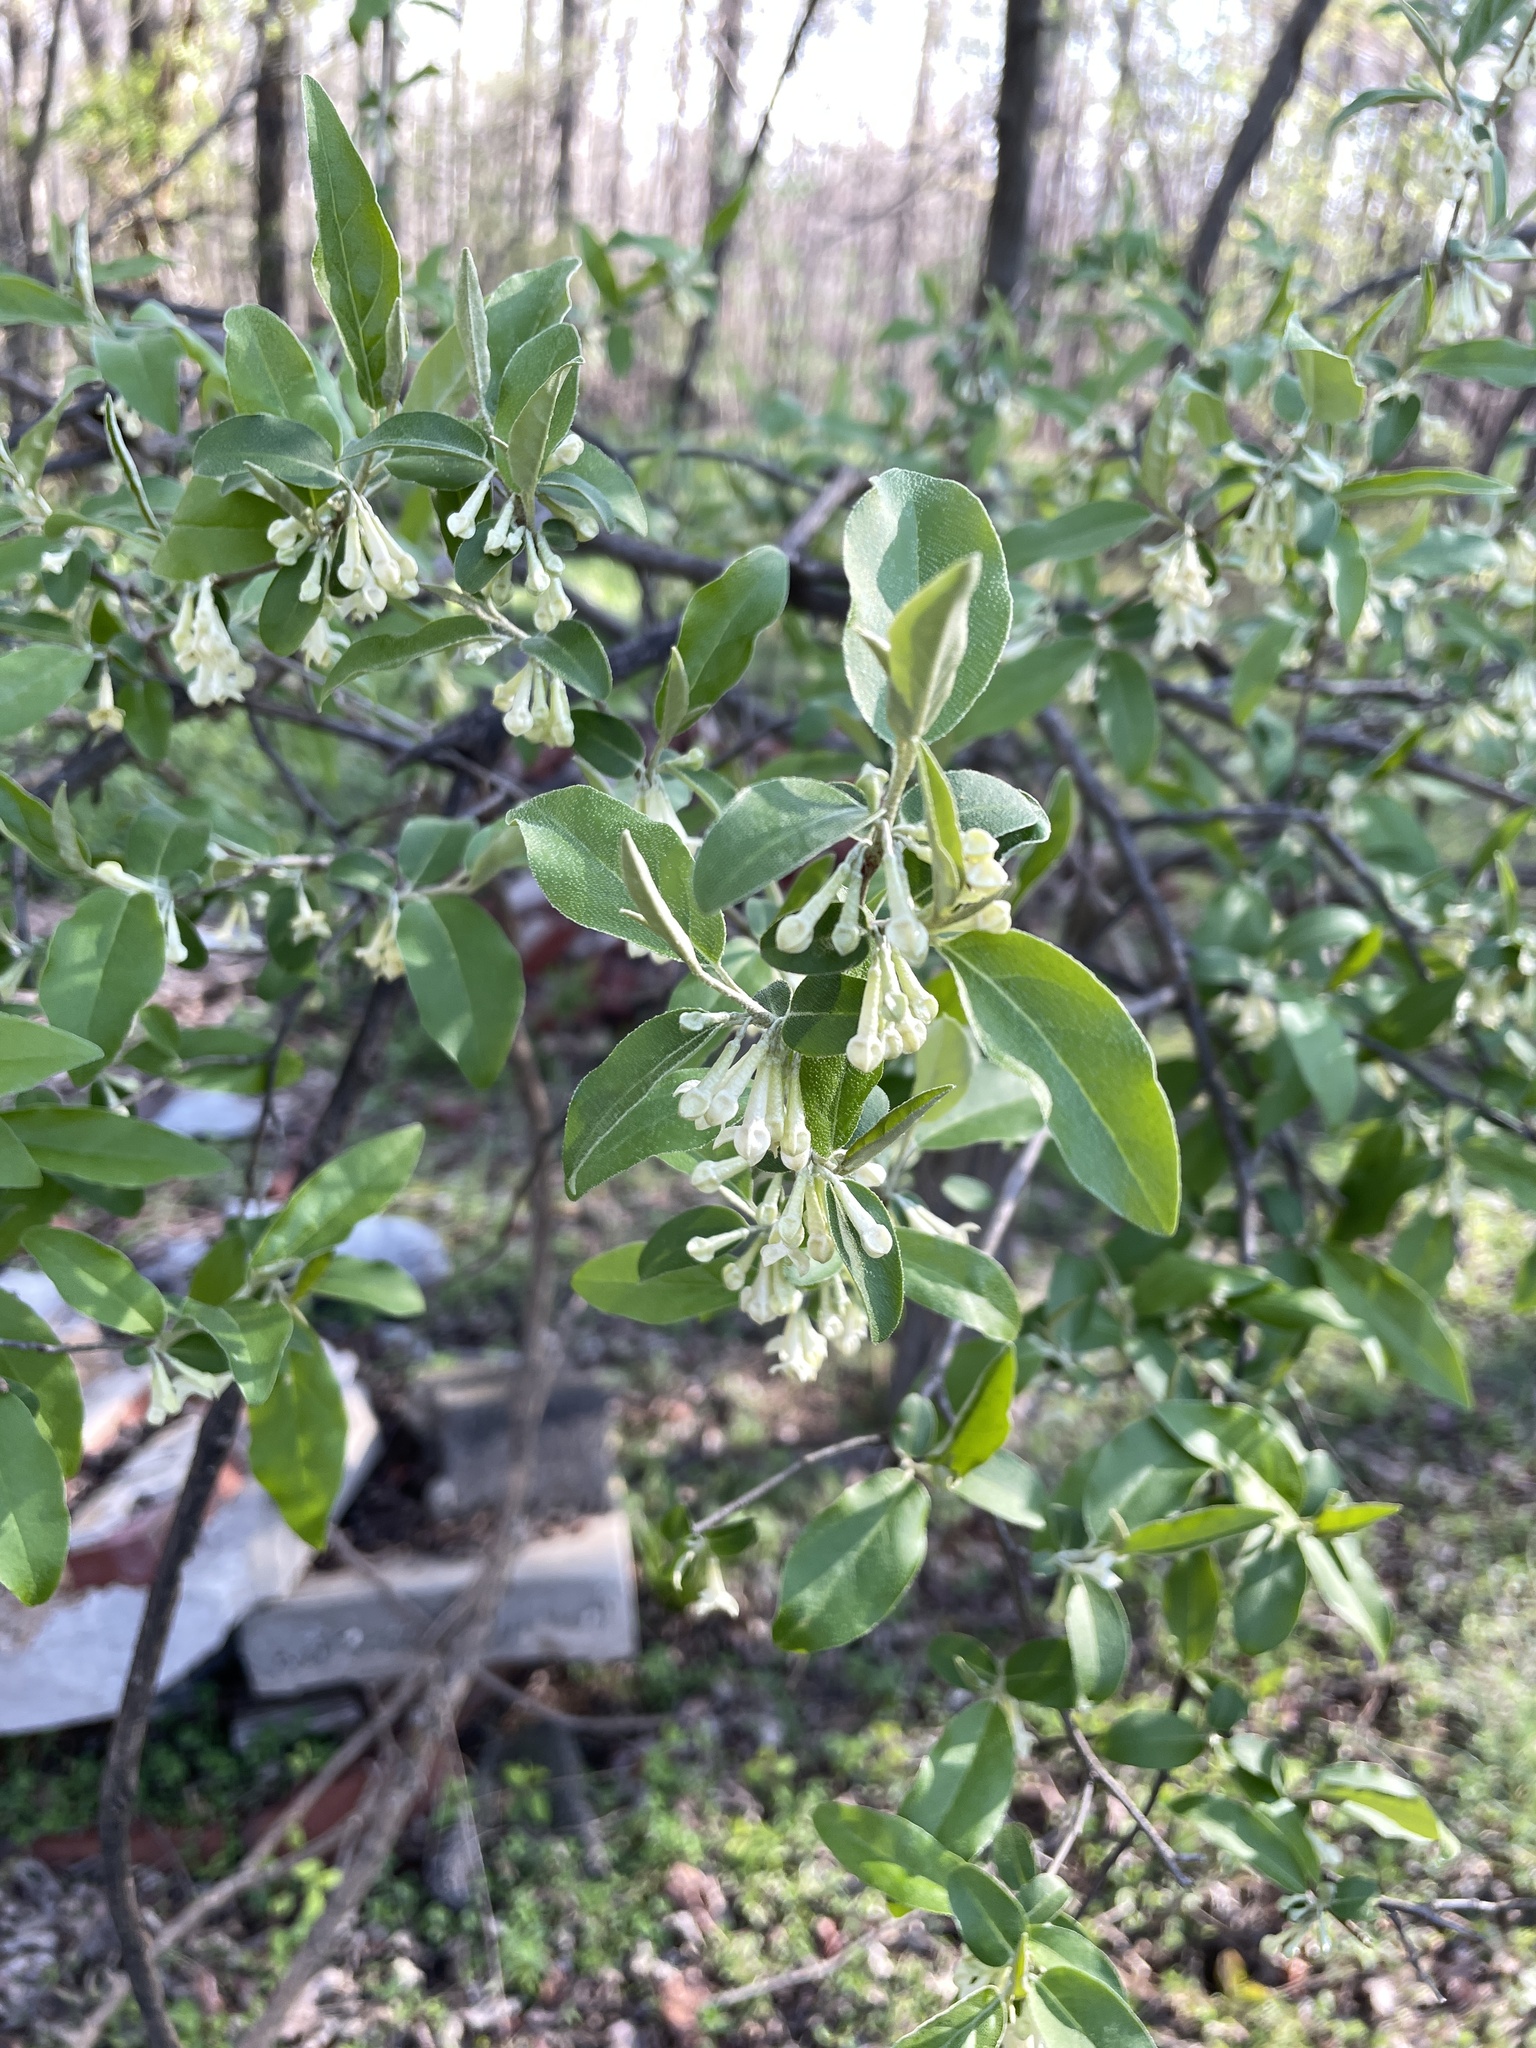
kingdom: Plantae
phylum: Tracheophyta
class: Magnoliopsida
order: Rosales
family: Elaeagnaceae
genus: Elaeagnus
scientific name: Elaeagnus umbellata
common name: Autumn olive
